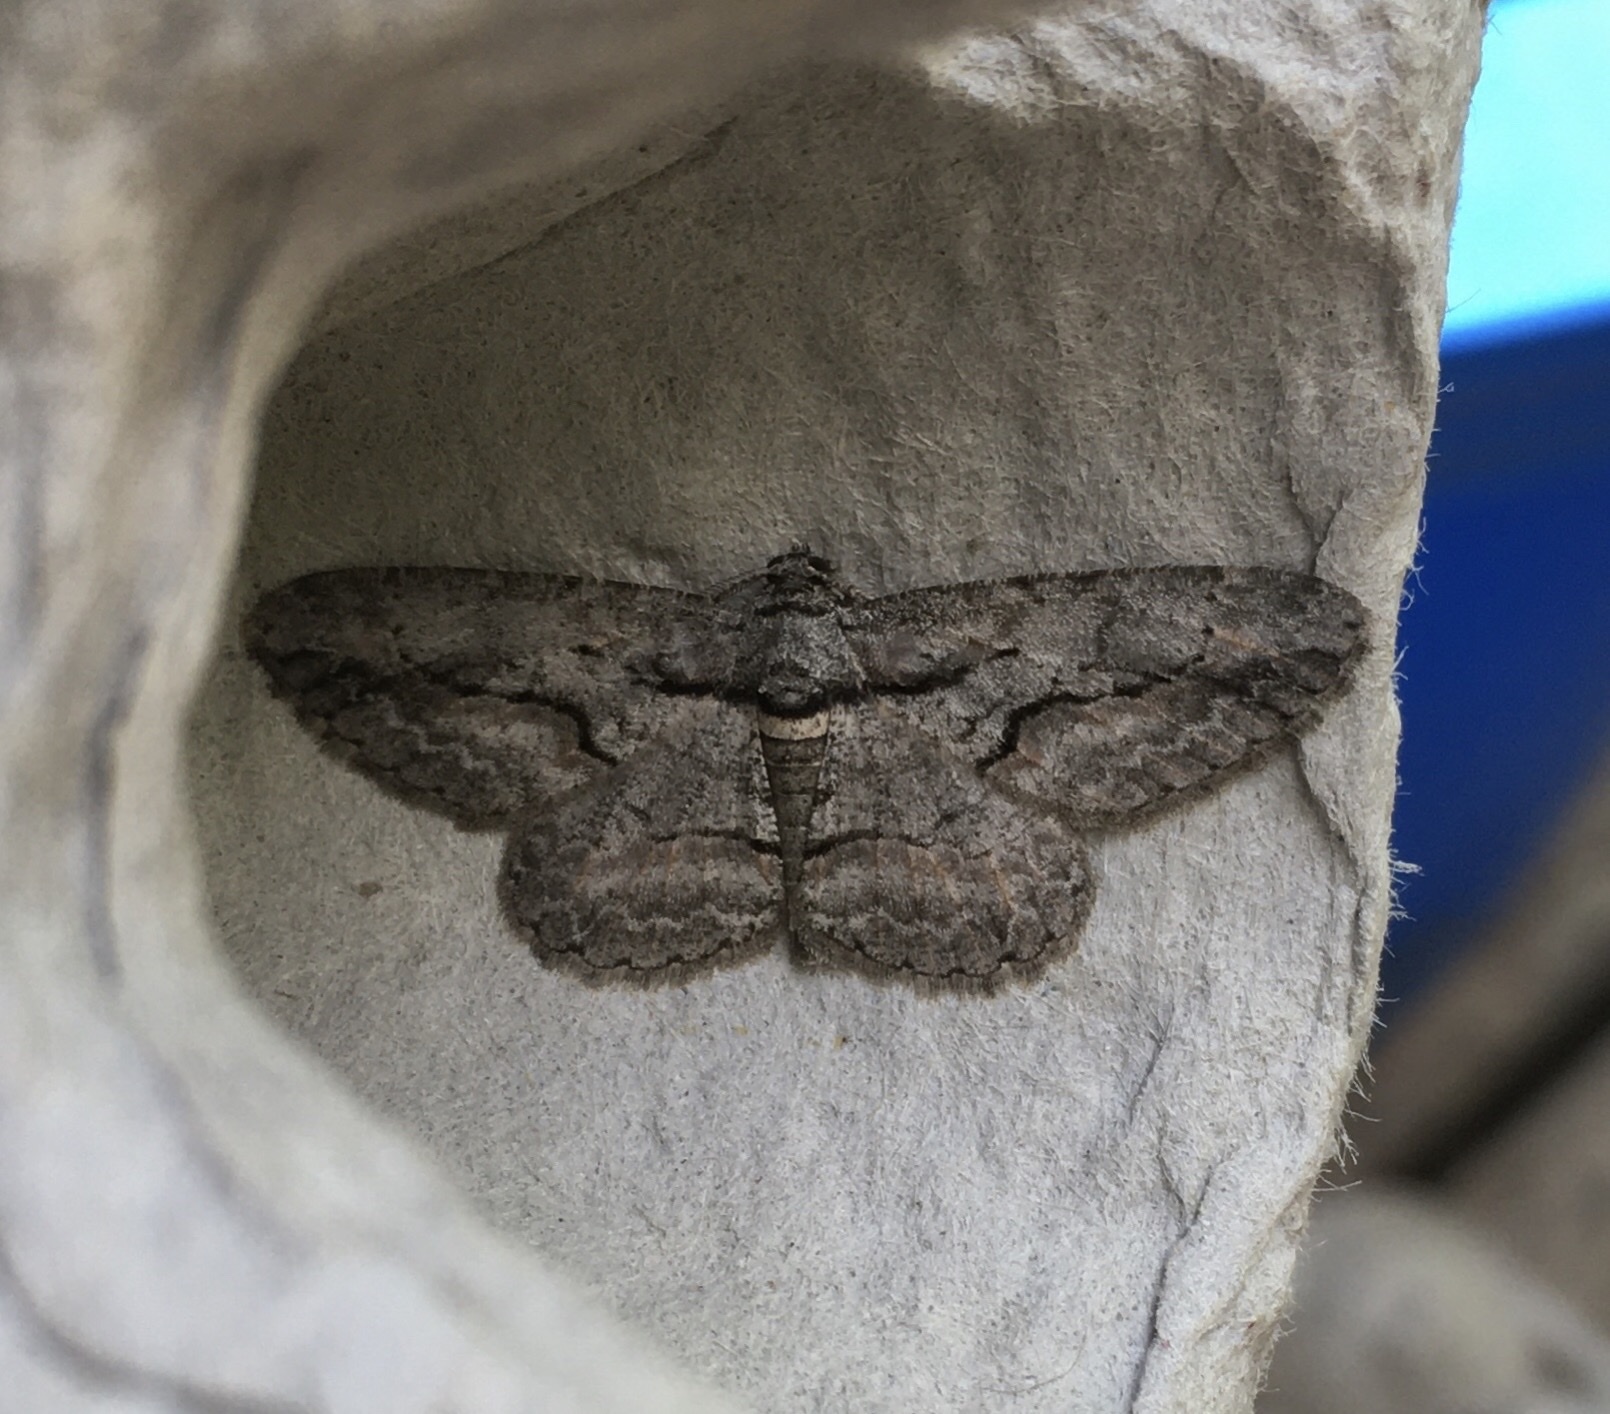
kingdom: Animalia
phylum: Arthropoda
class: Insecta
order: Lepidoptera
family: Geometridae
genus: Anavitrinella
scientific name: Anavitrinella pampinaria
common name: Common gray
